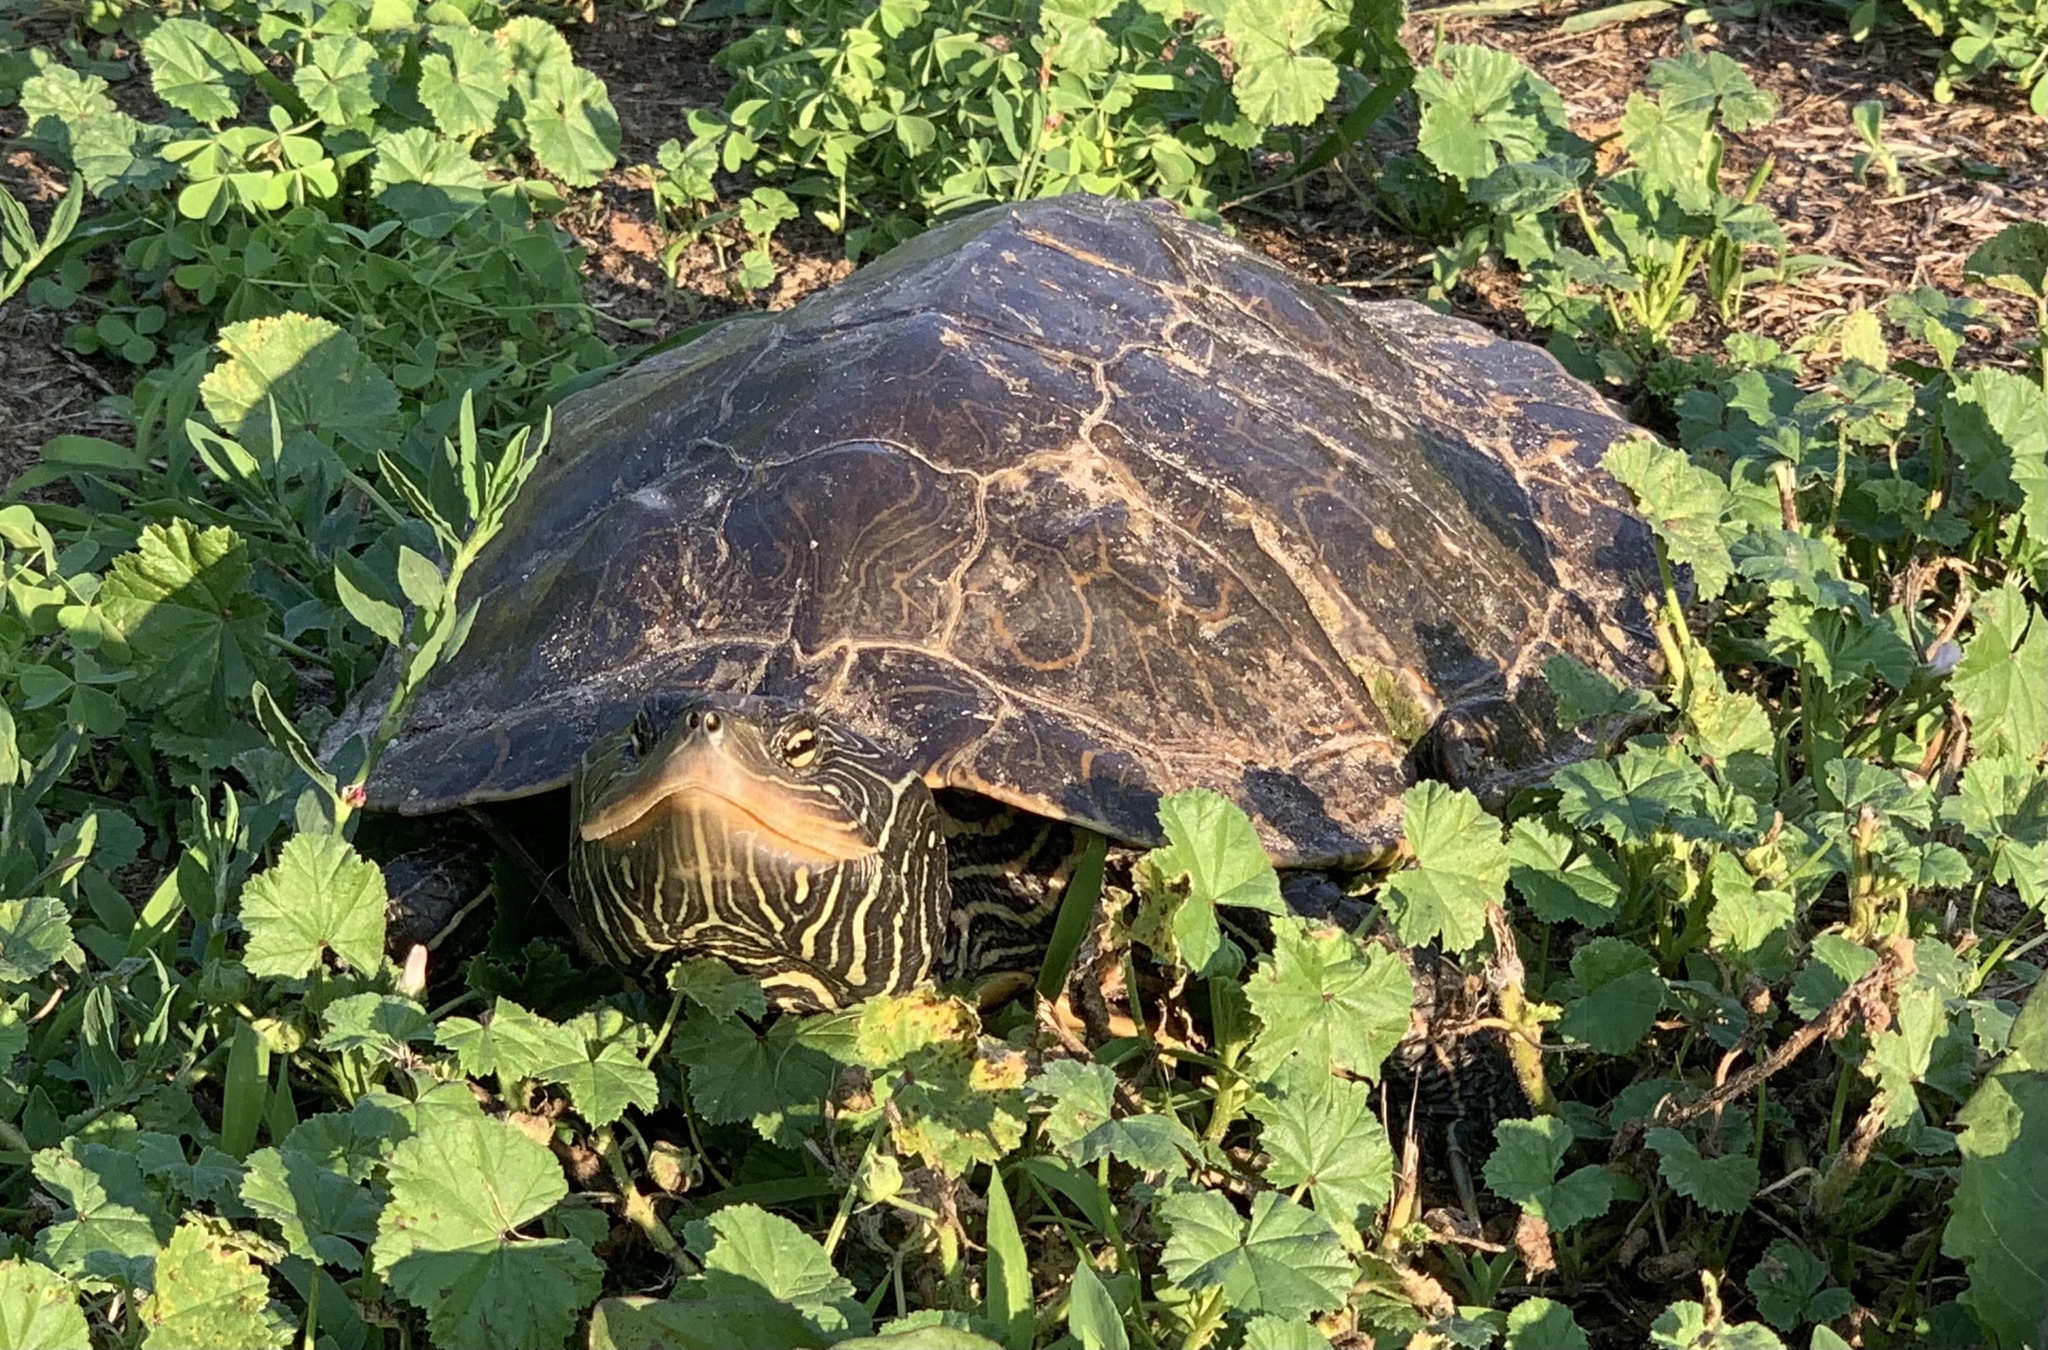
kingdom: Animalia
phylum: Chordata
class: Testudines
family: Emydidae
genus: Graptemys
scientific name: Graptemys geographica
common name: Common map turtle
